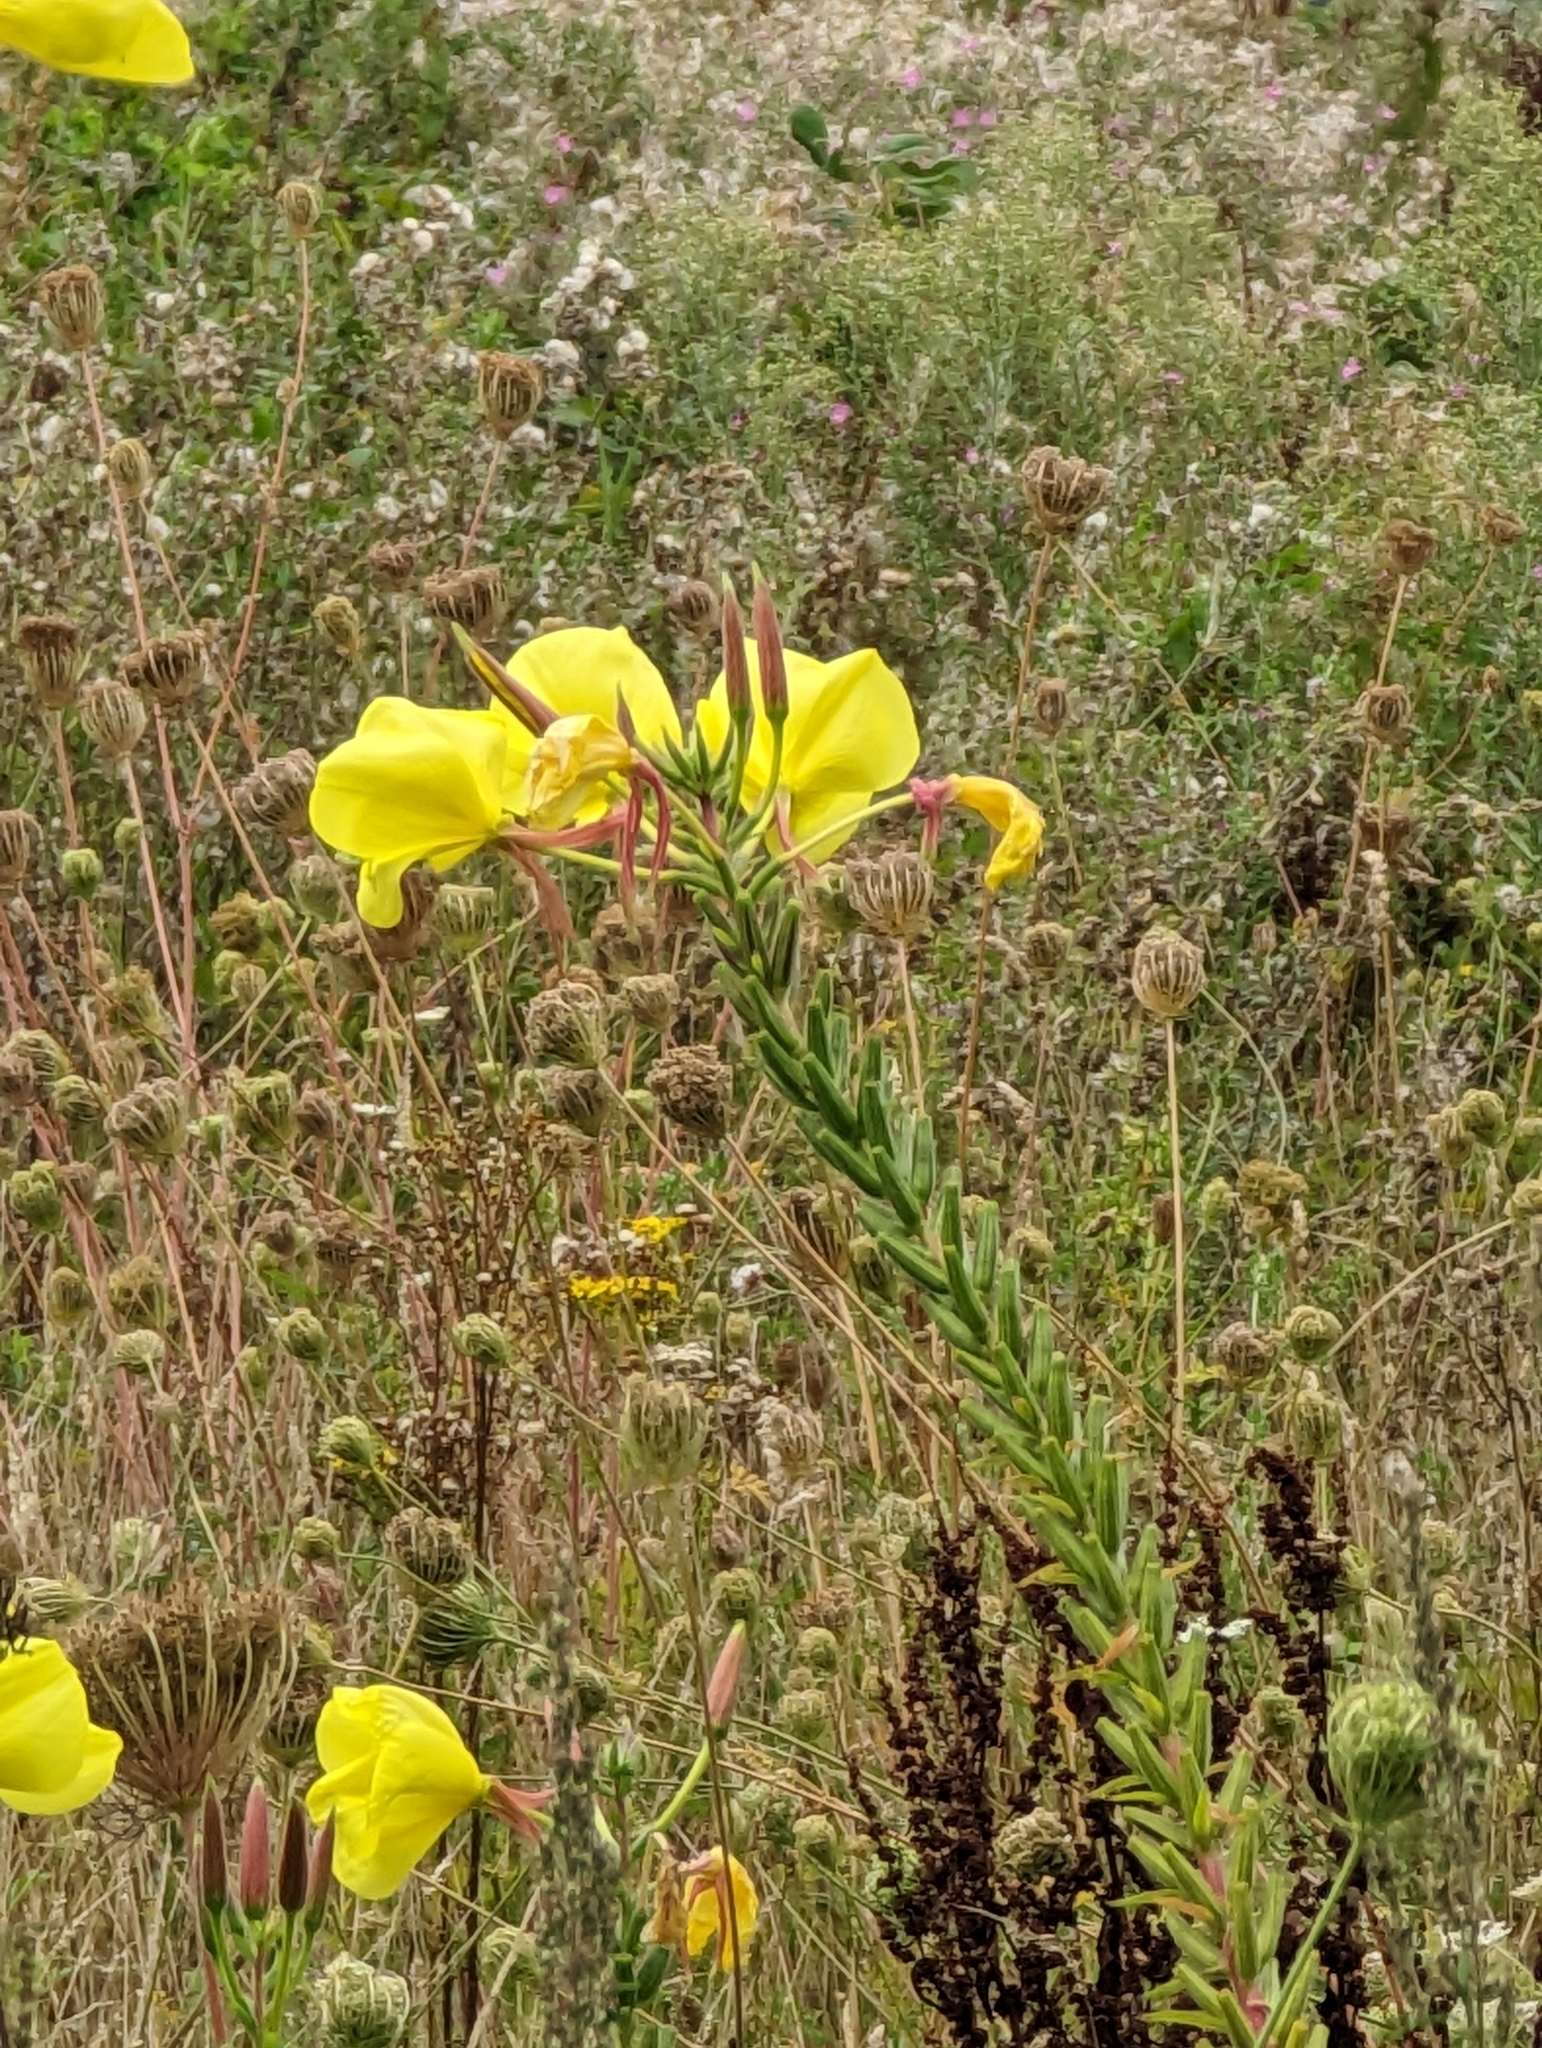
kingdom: Plantae
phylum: Tracheophyta
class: Magnoliopsida
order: Myrtales
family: Onagraceae
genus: Oenothera
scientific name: Oenothera glazioviana
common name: Large-flowered evening-primrose
